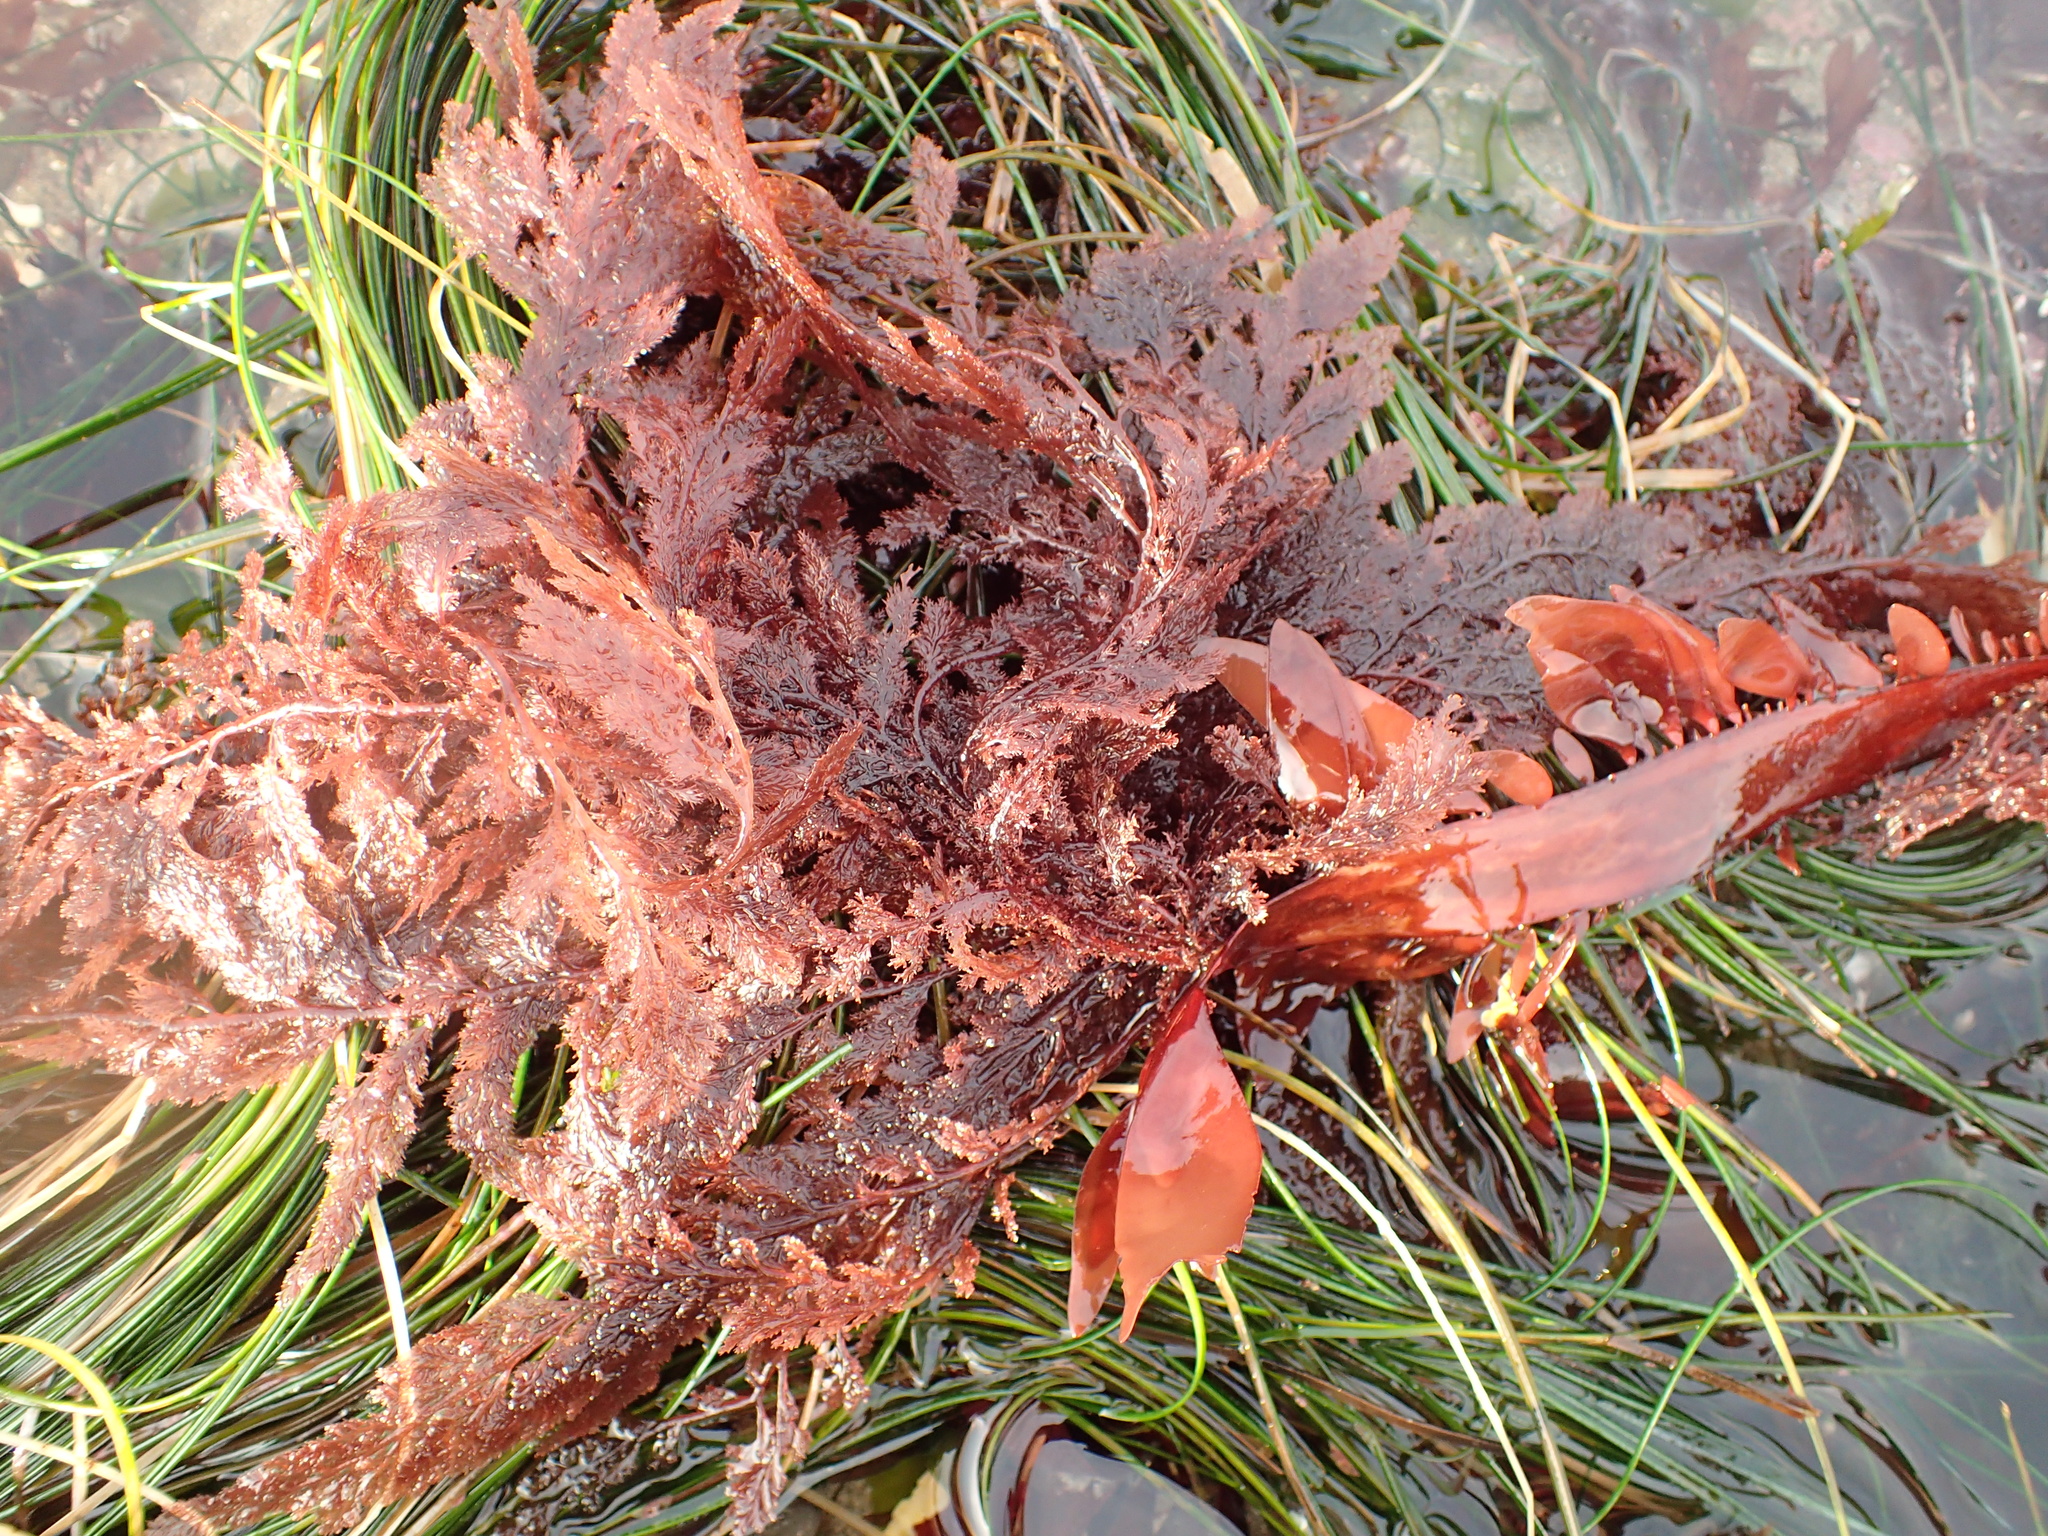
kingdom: Plantae
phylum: Rhodophyta
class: Florideophyceae
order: Ceramiales
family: Ceramiaceae
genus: Microcladia
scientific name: Microcladia coulteri
